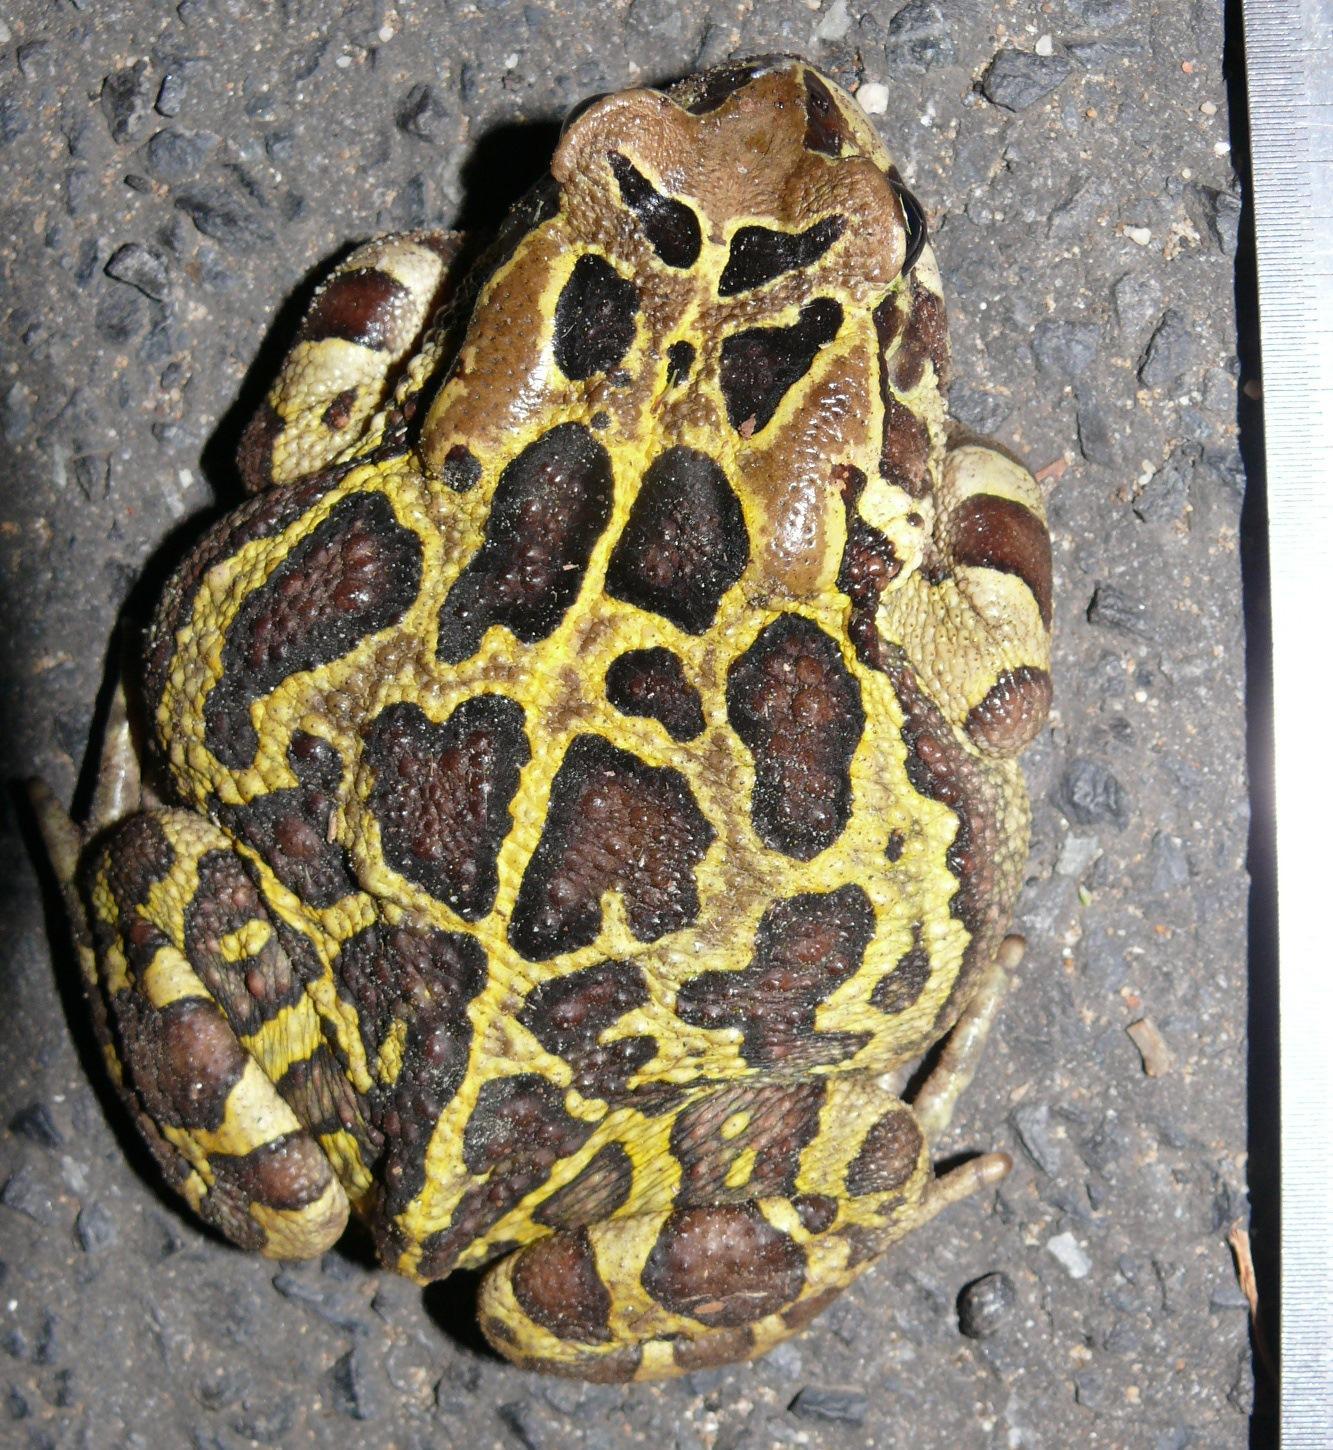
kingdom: Animalia
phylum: Chordata
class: Amphibia
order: Anura
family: Bufonidae
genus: Sclerophrys
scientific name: Sclerophrys pantherina
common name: Panther toad
